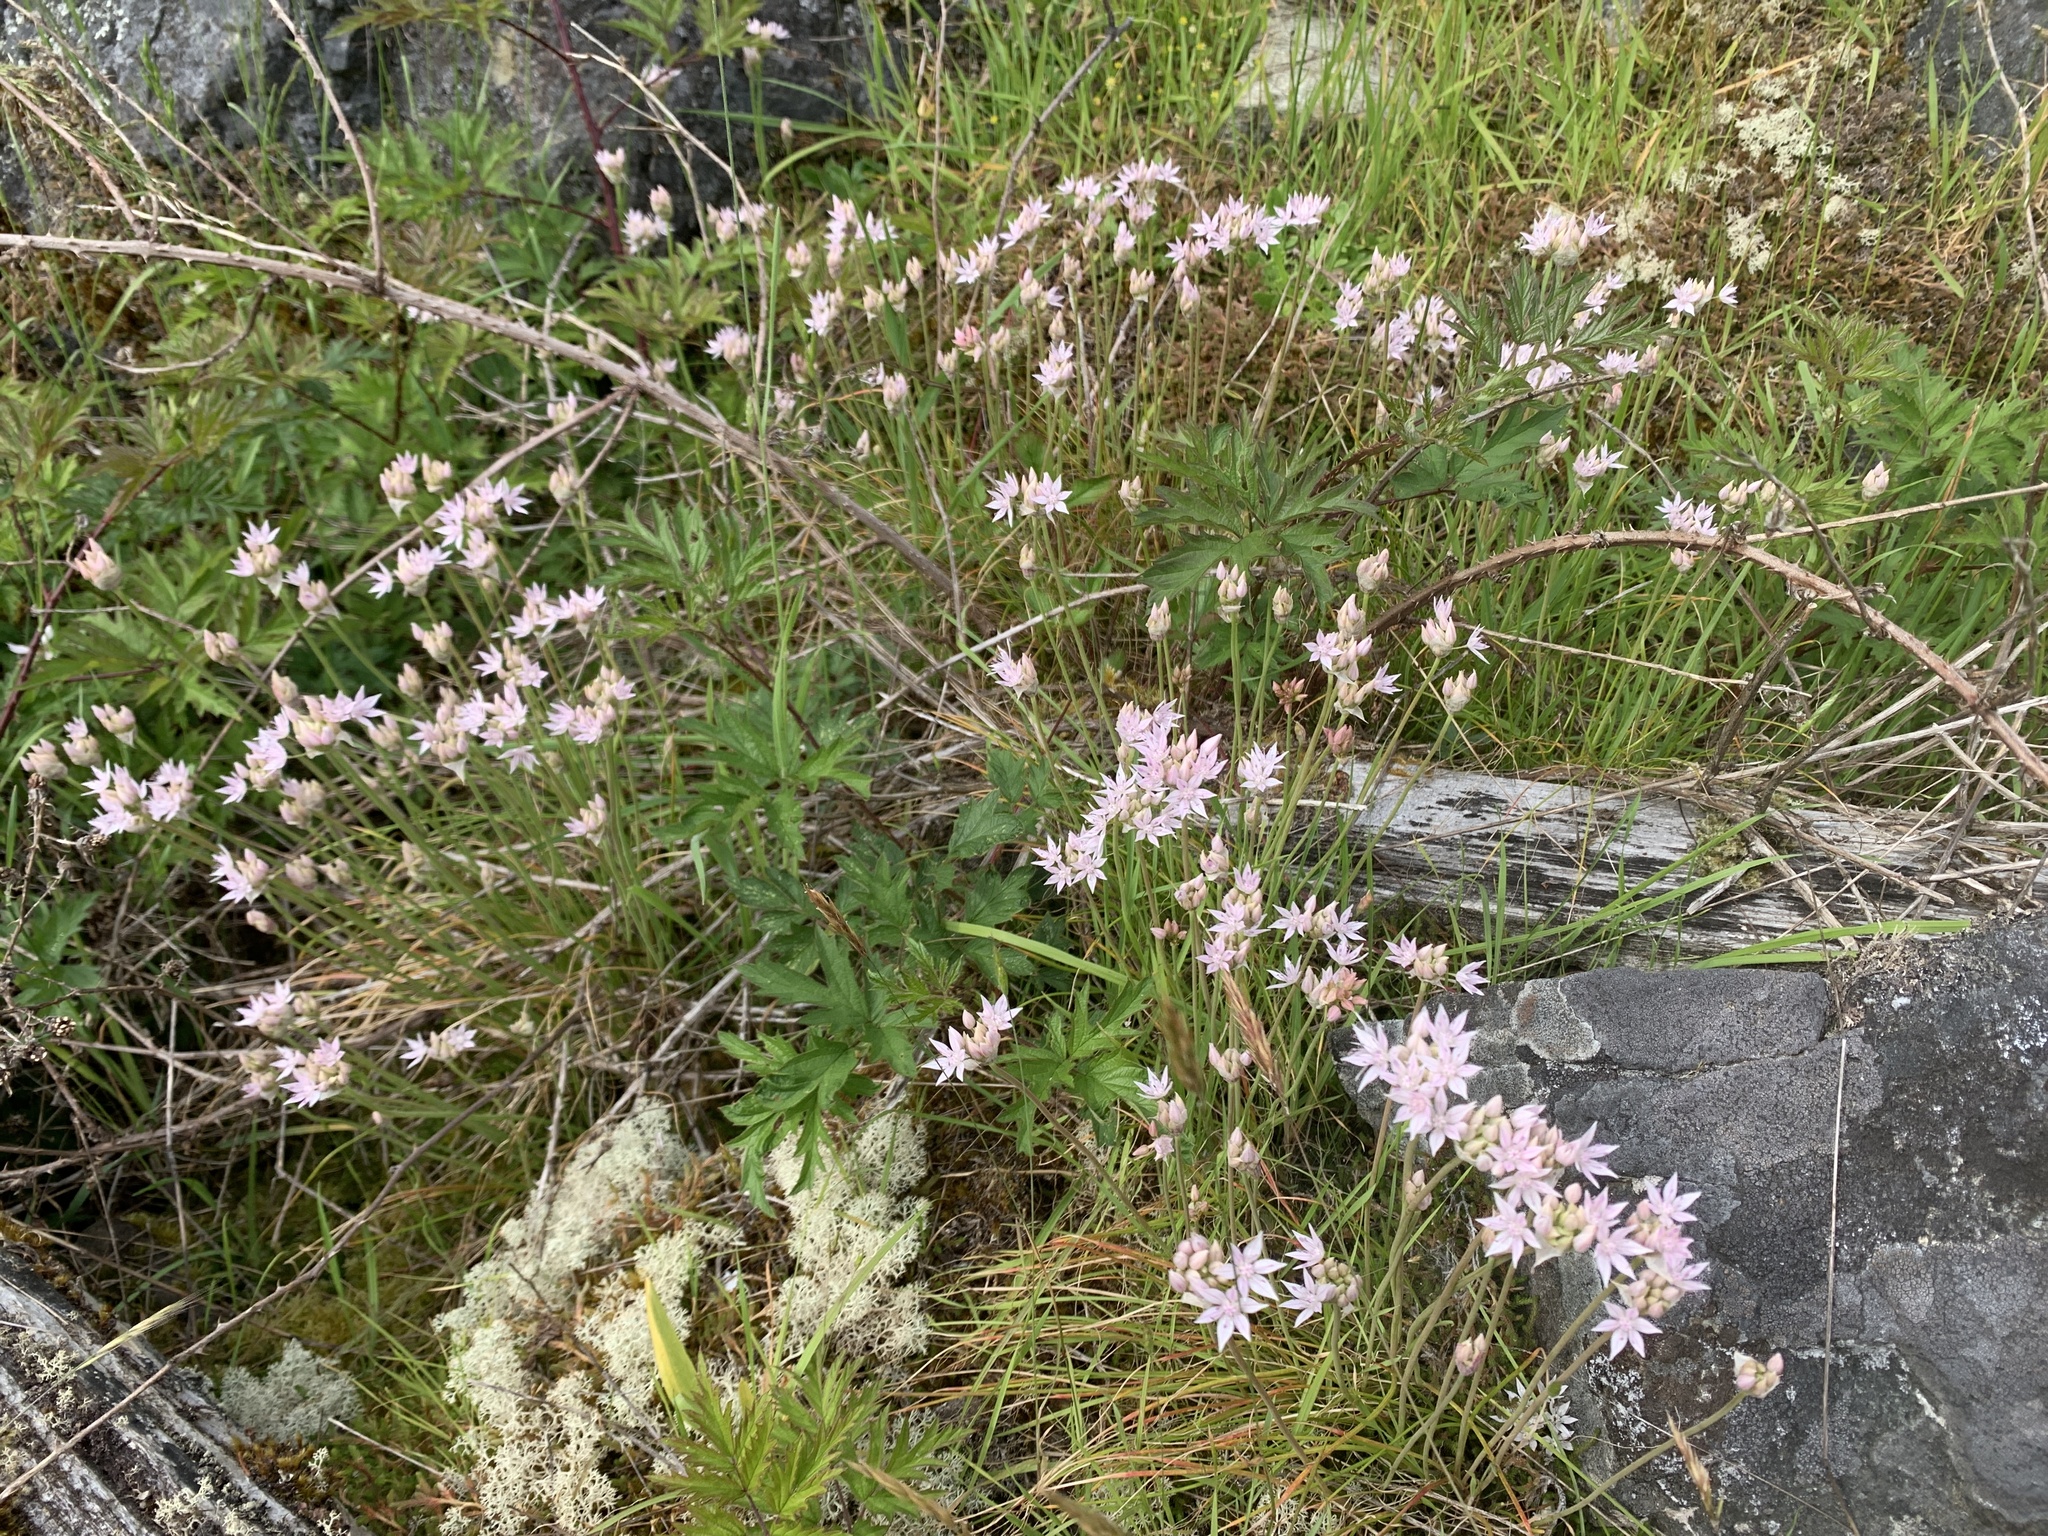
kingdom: Plantae
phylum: Tracheophyta
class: Liliopsida
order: Asparagales
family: Amaryllidaceae
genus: Allium
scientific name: Allium amplectens
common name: Narrow-leaved onion
